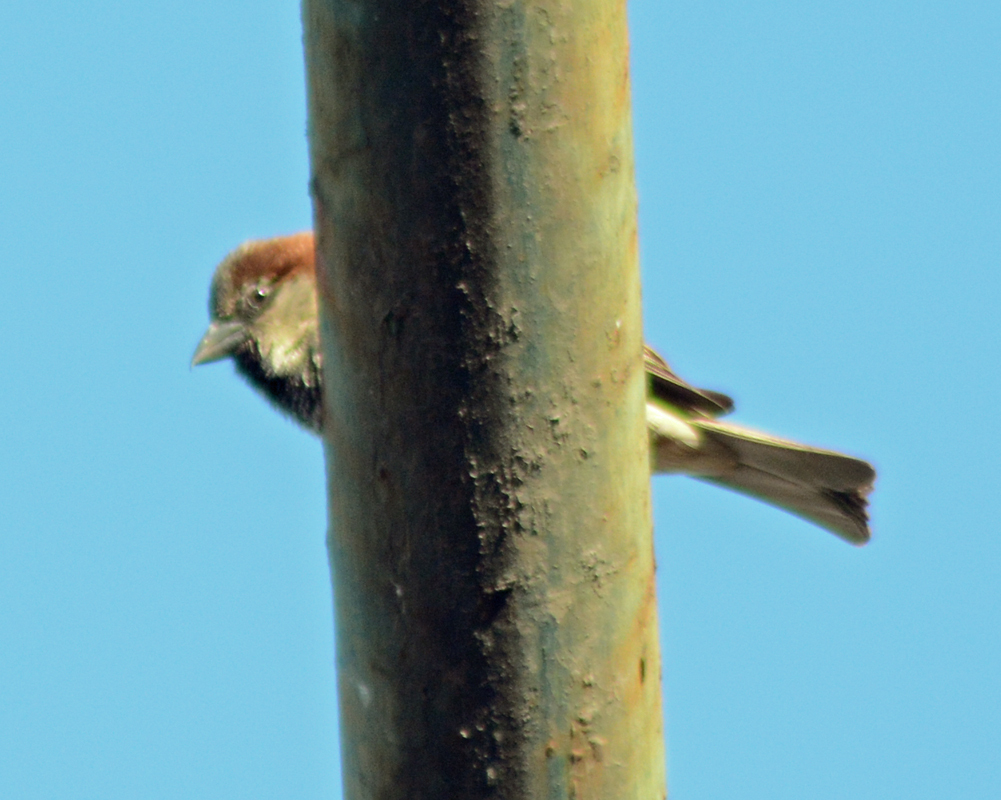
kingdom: Animalia
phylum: Chordata
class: Aves
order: Passeriformes
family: Passeridae
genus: Passer
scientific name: Passer domesticus
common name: House sparrow
